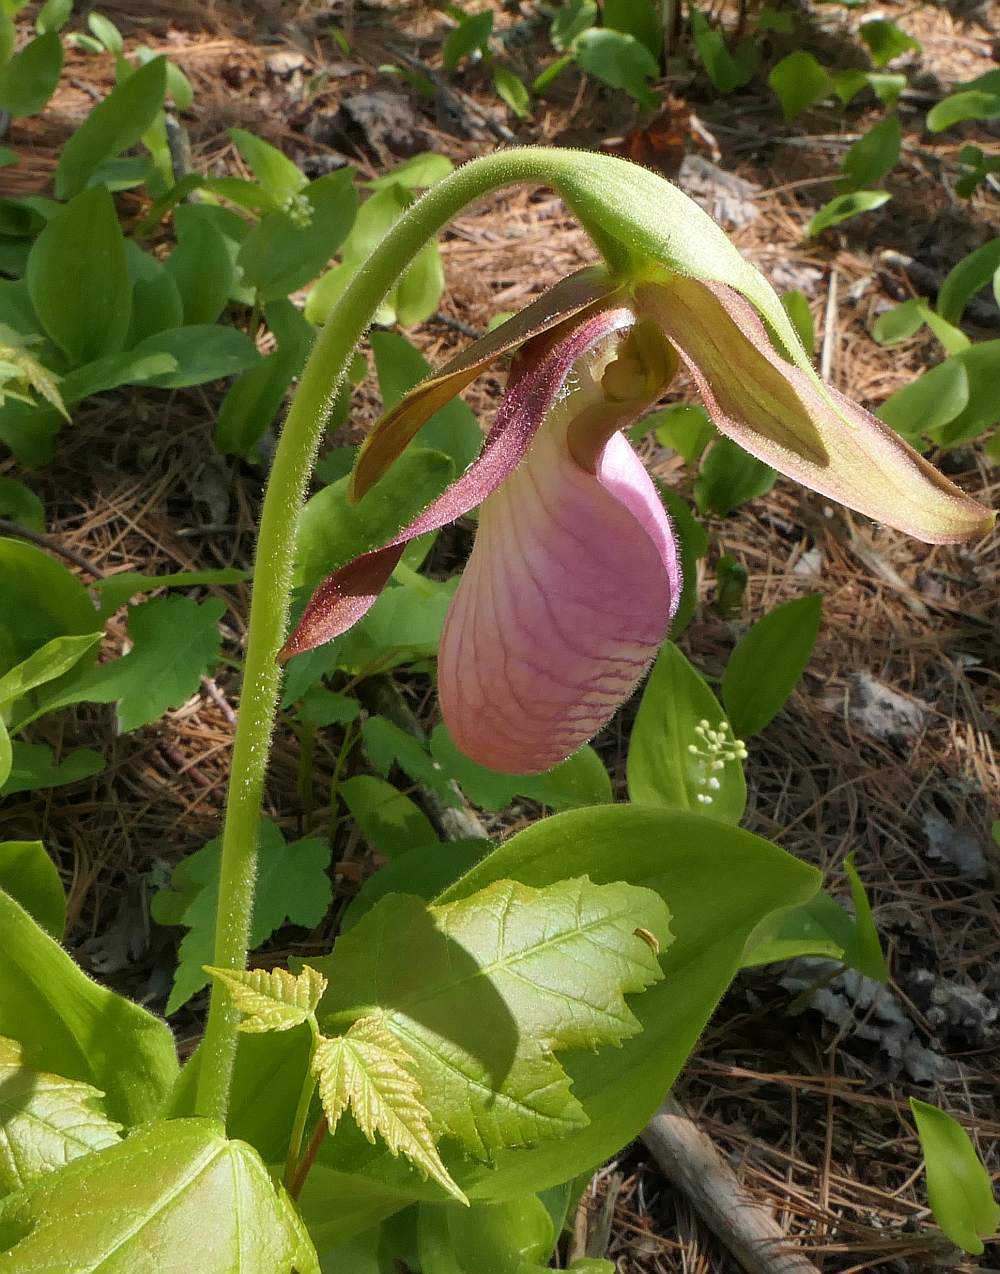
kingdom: Plantae
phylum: Tracheophyta
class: Liliopsida
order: Asparagales
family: Orchidaceae
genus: Cypripedium
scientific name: Cypripedium acaule
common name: Pink lady's-slipper
